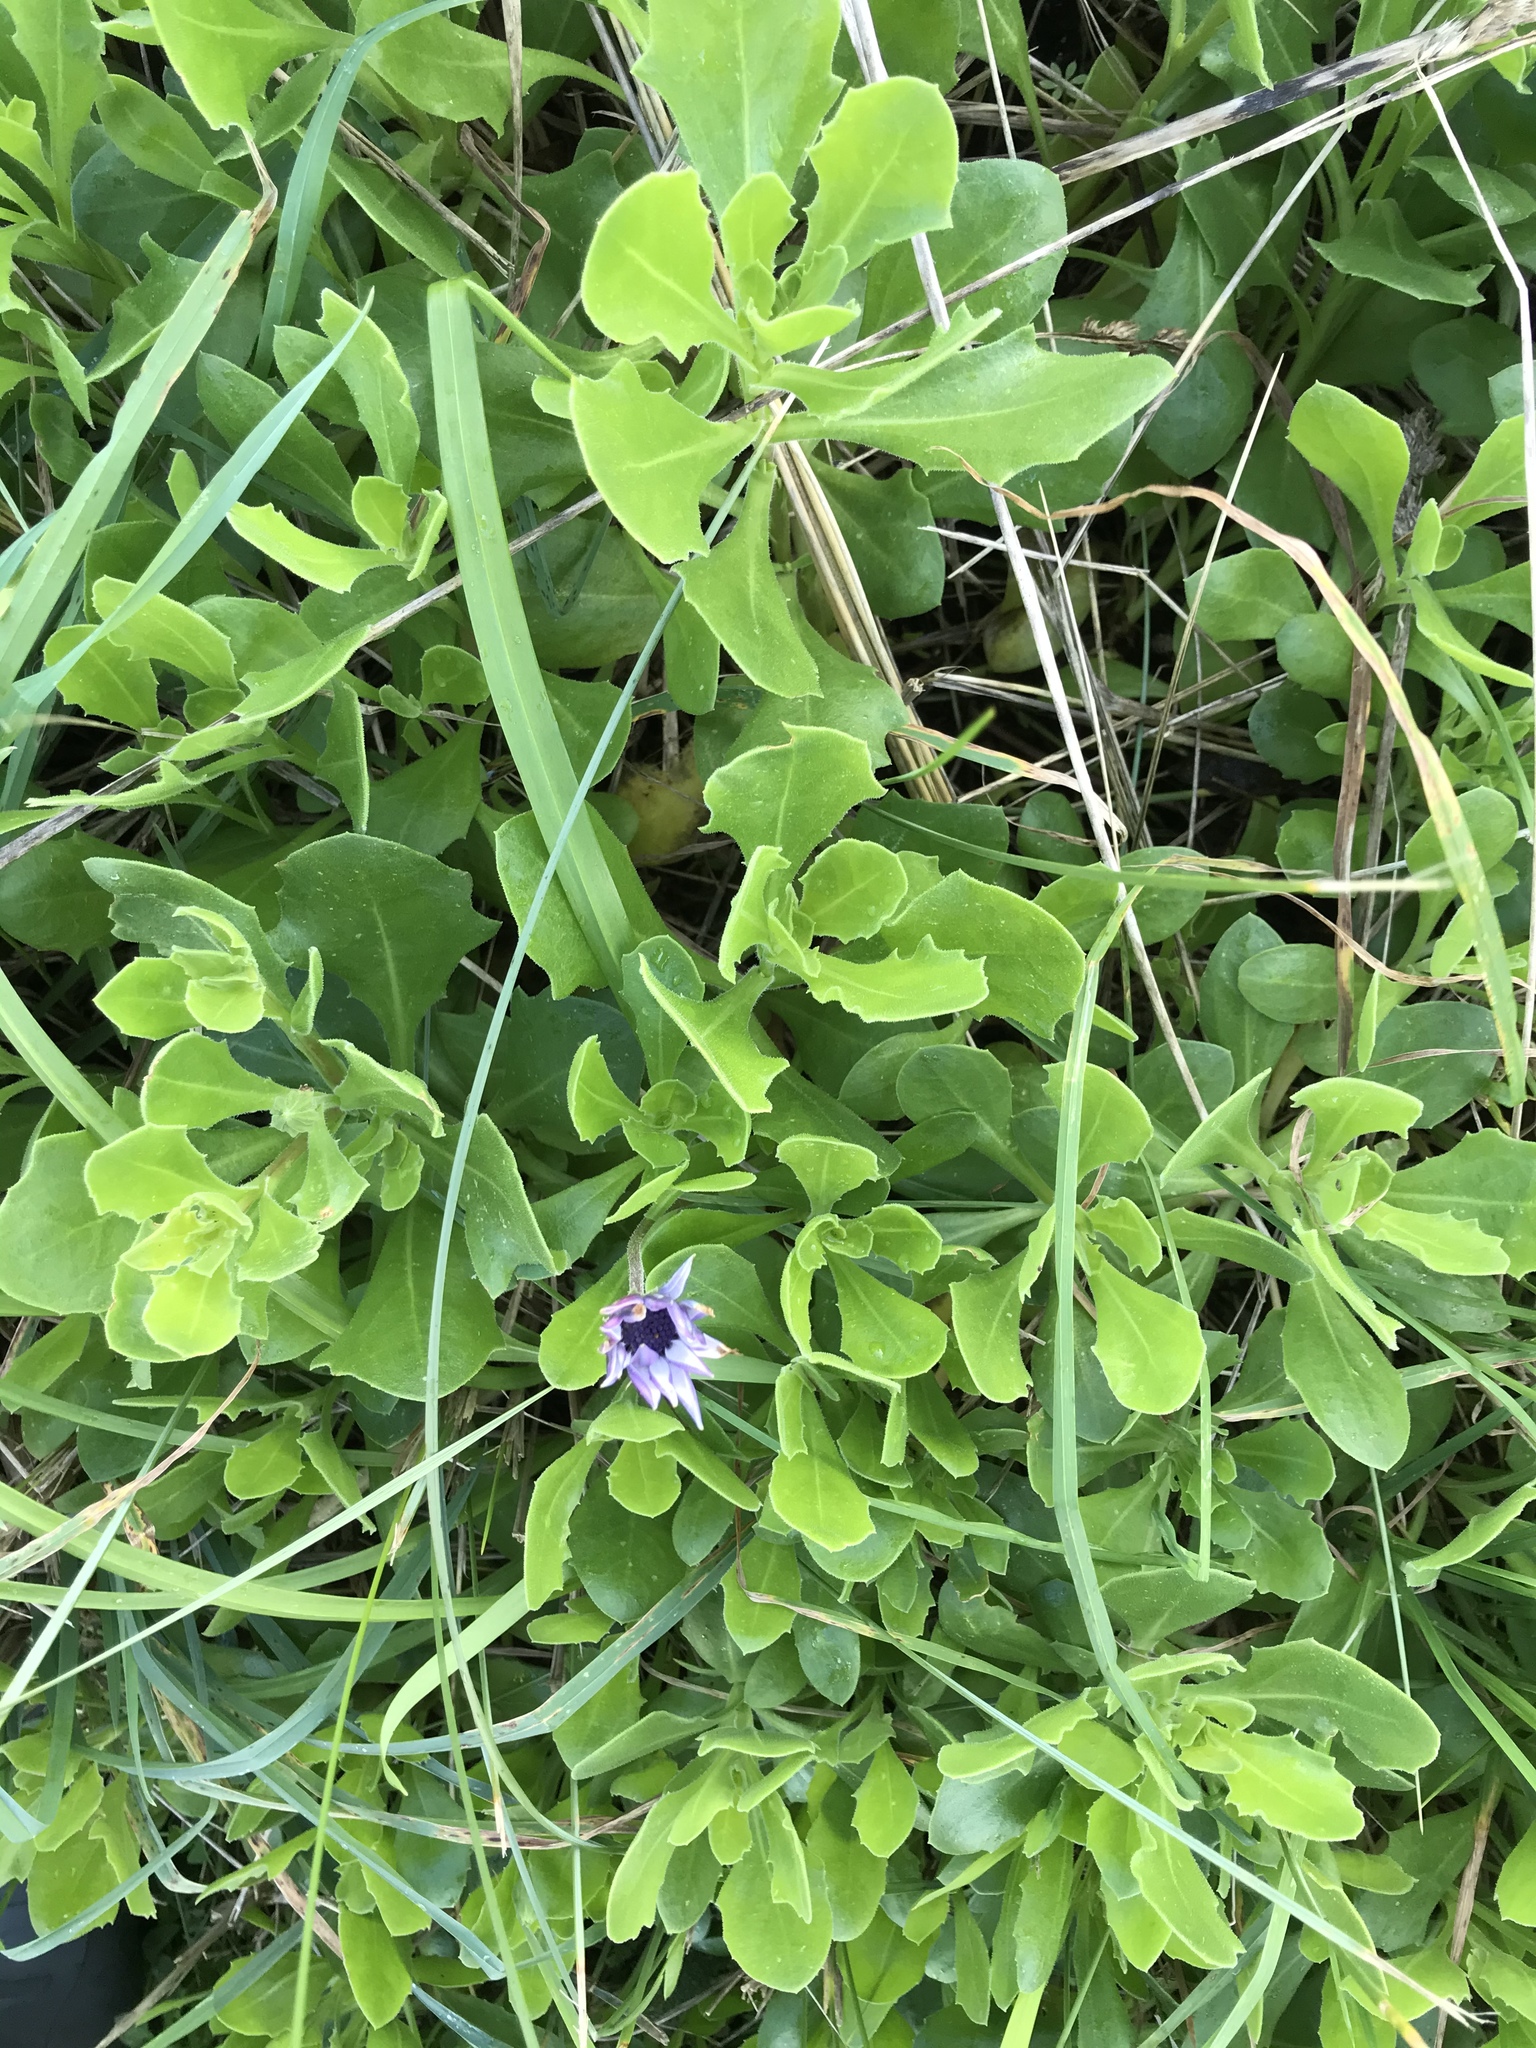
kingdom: Plantae
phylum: Tracheophyta
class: Magnoliopsida
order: Asterales
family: Asteraceae
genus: Dimorphotheca
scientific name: Dimorphotheca fruticosa
